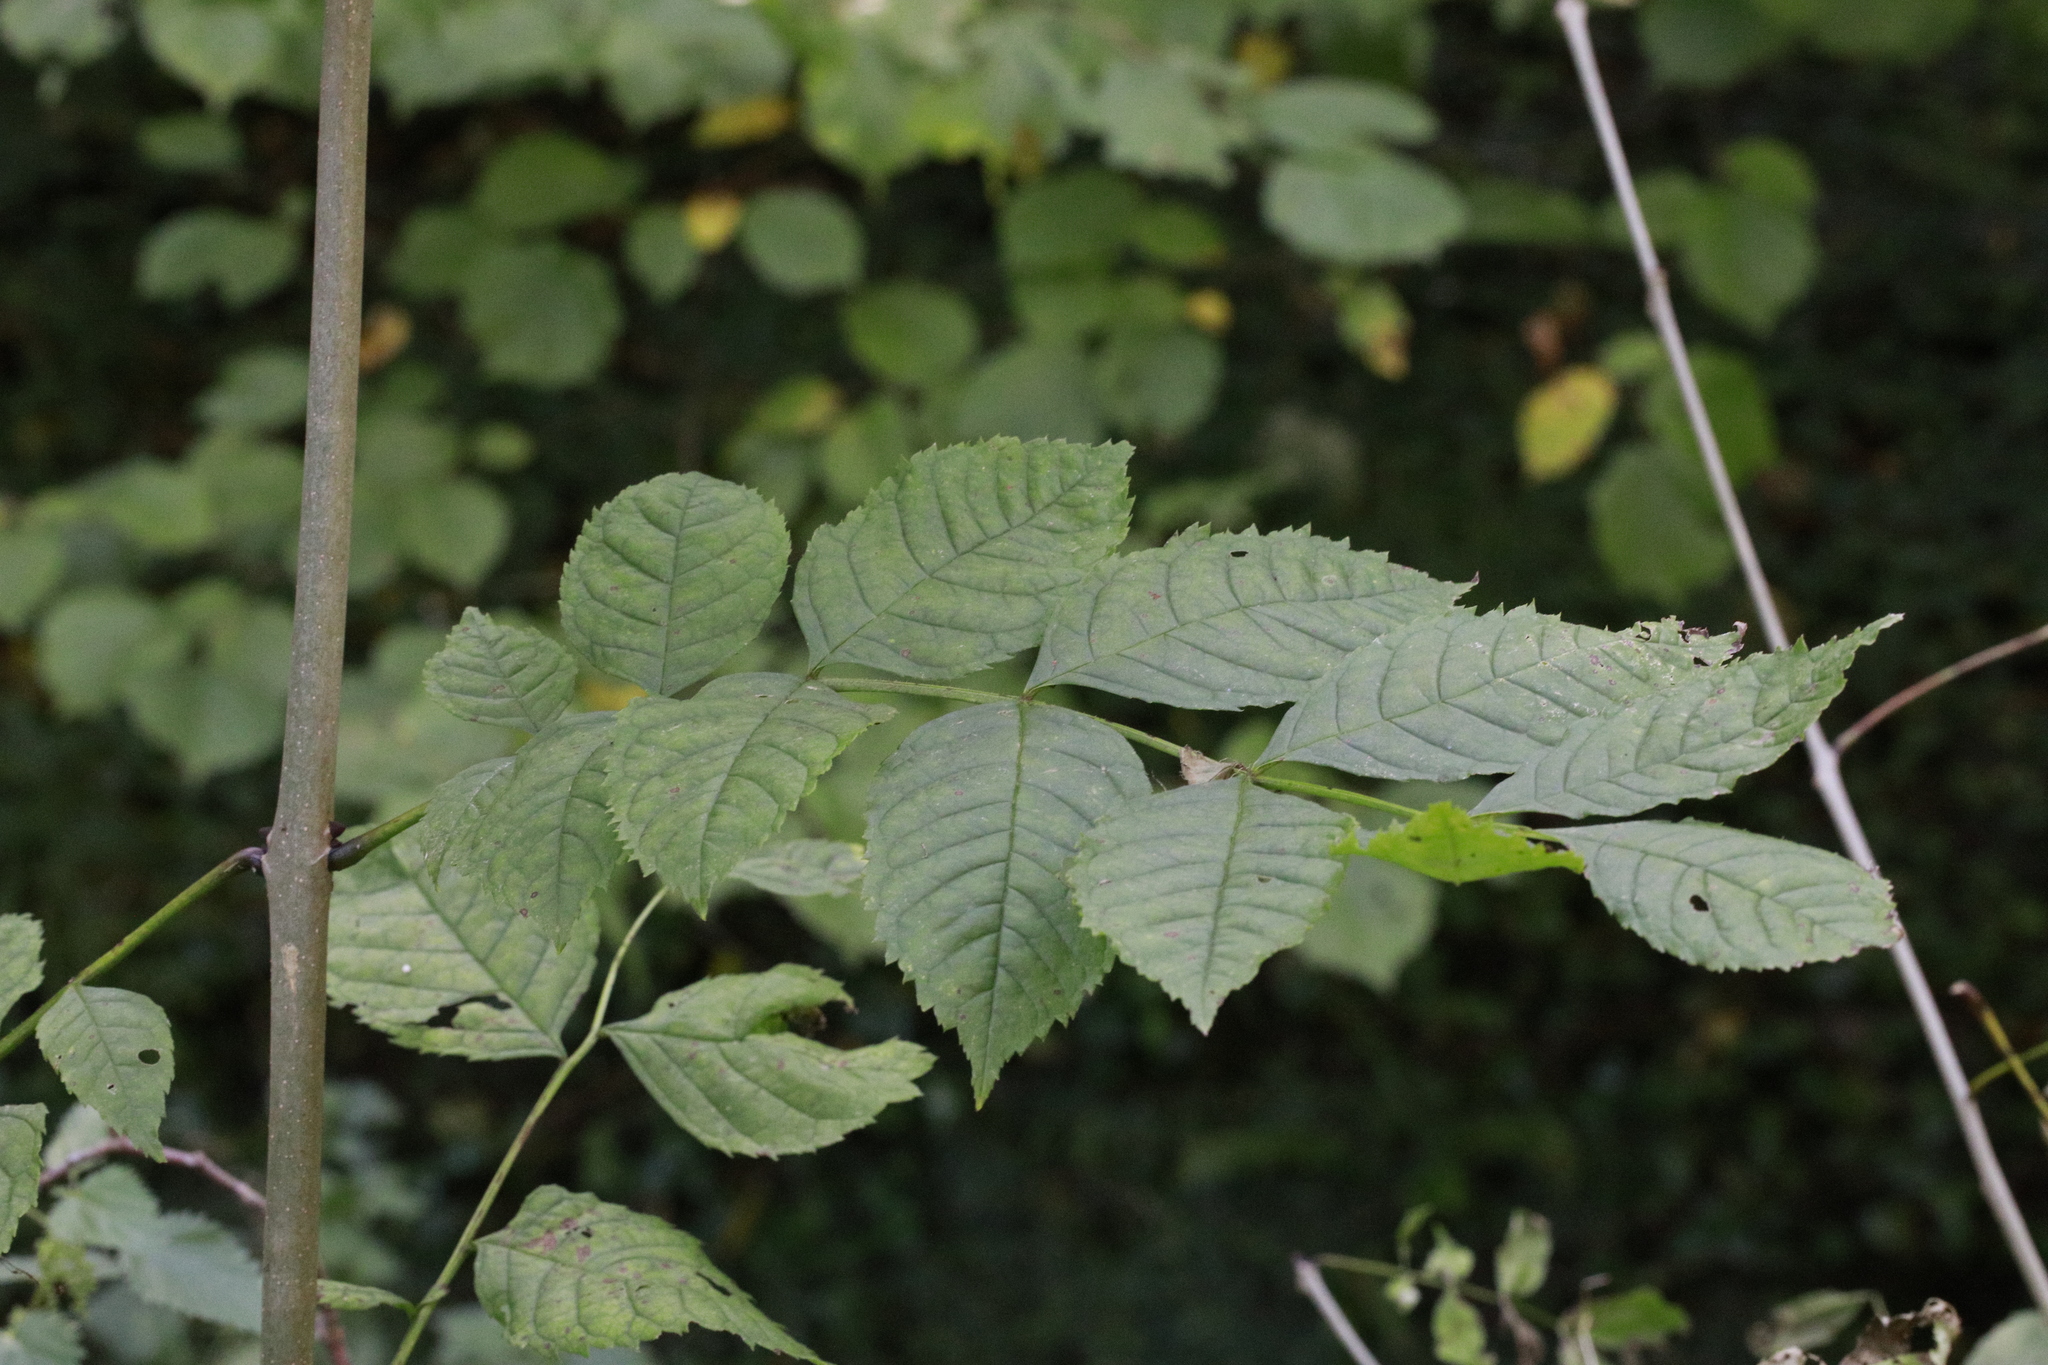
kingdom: Plantae
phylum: Tracheophyta
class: Magnoliopsida
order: Lamiales
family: Oleaceae
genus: Fraxinus
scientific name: Fraxinus excelsior
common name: European ash
